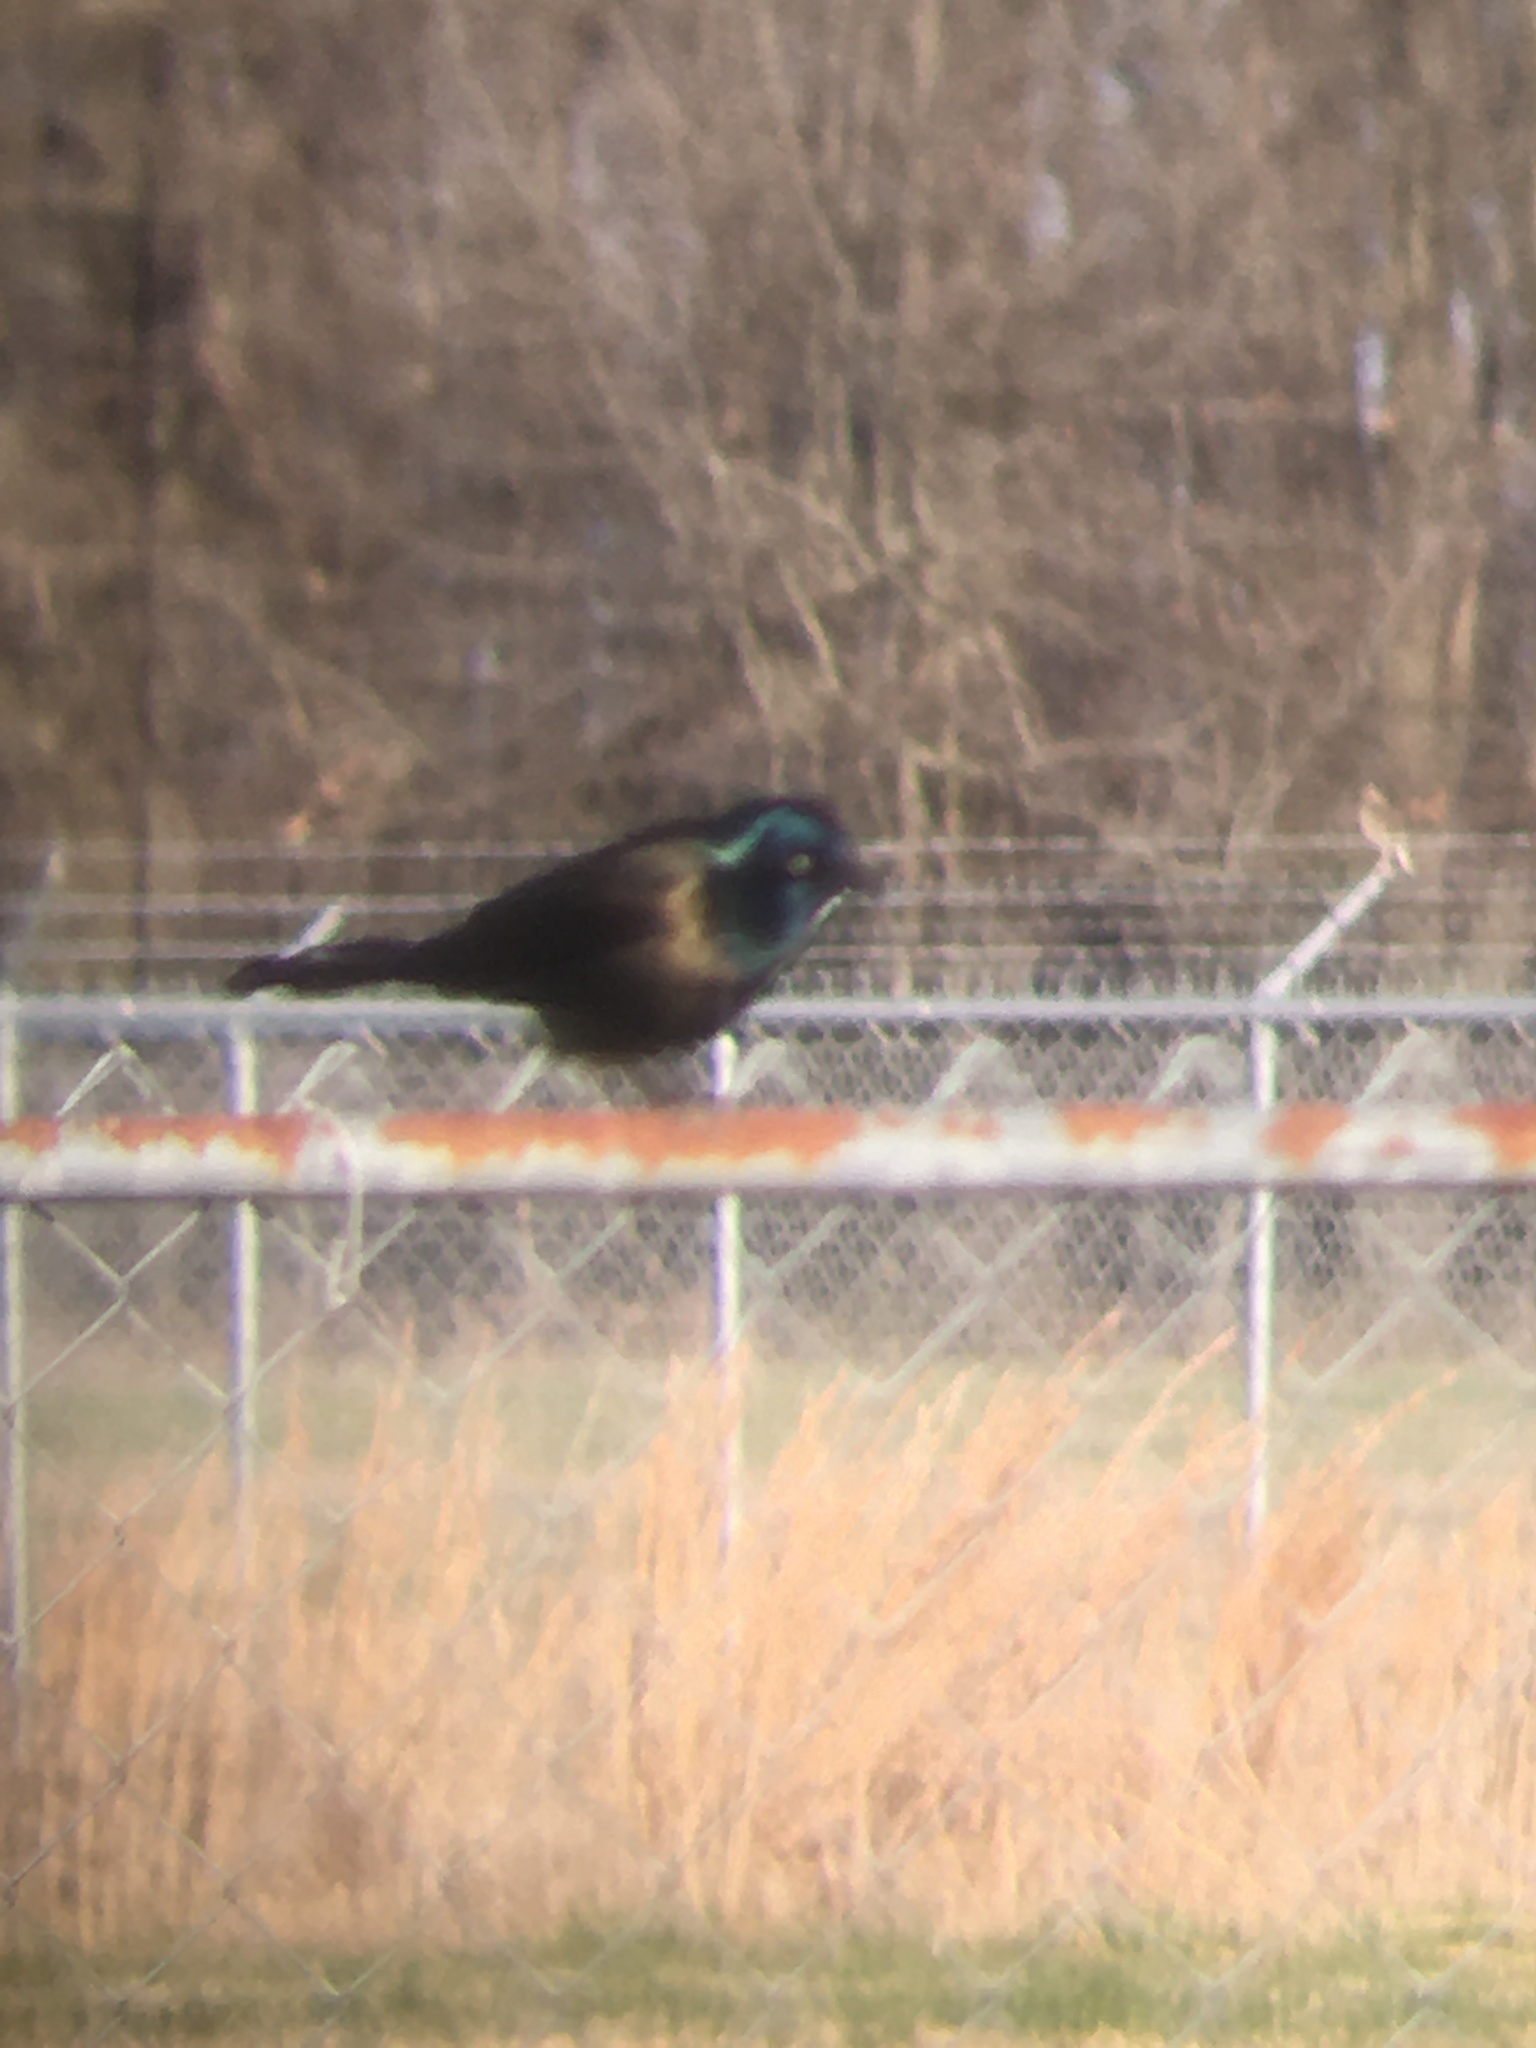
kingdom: Animalia
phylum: Chordata
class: Aves
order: Passeriformes
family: Icteridae
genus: Quiscalus
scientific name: Quiscalus quiscula
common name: Common grackle
